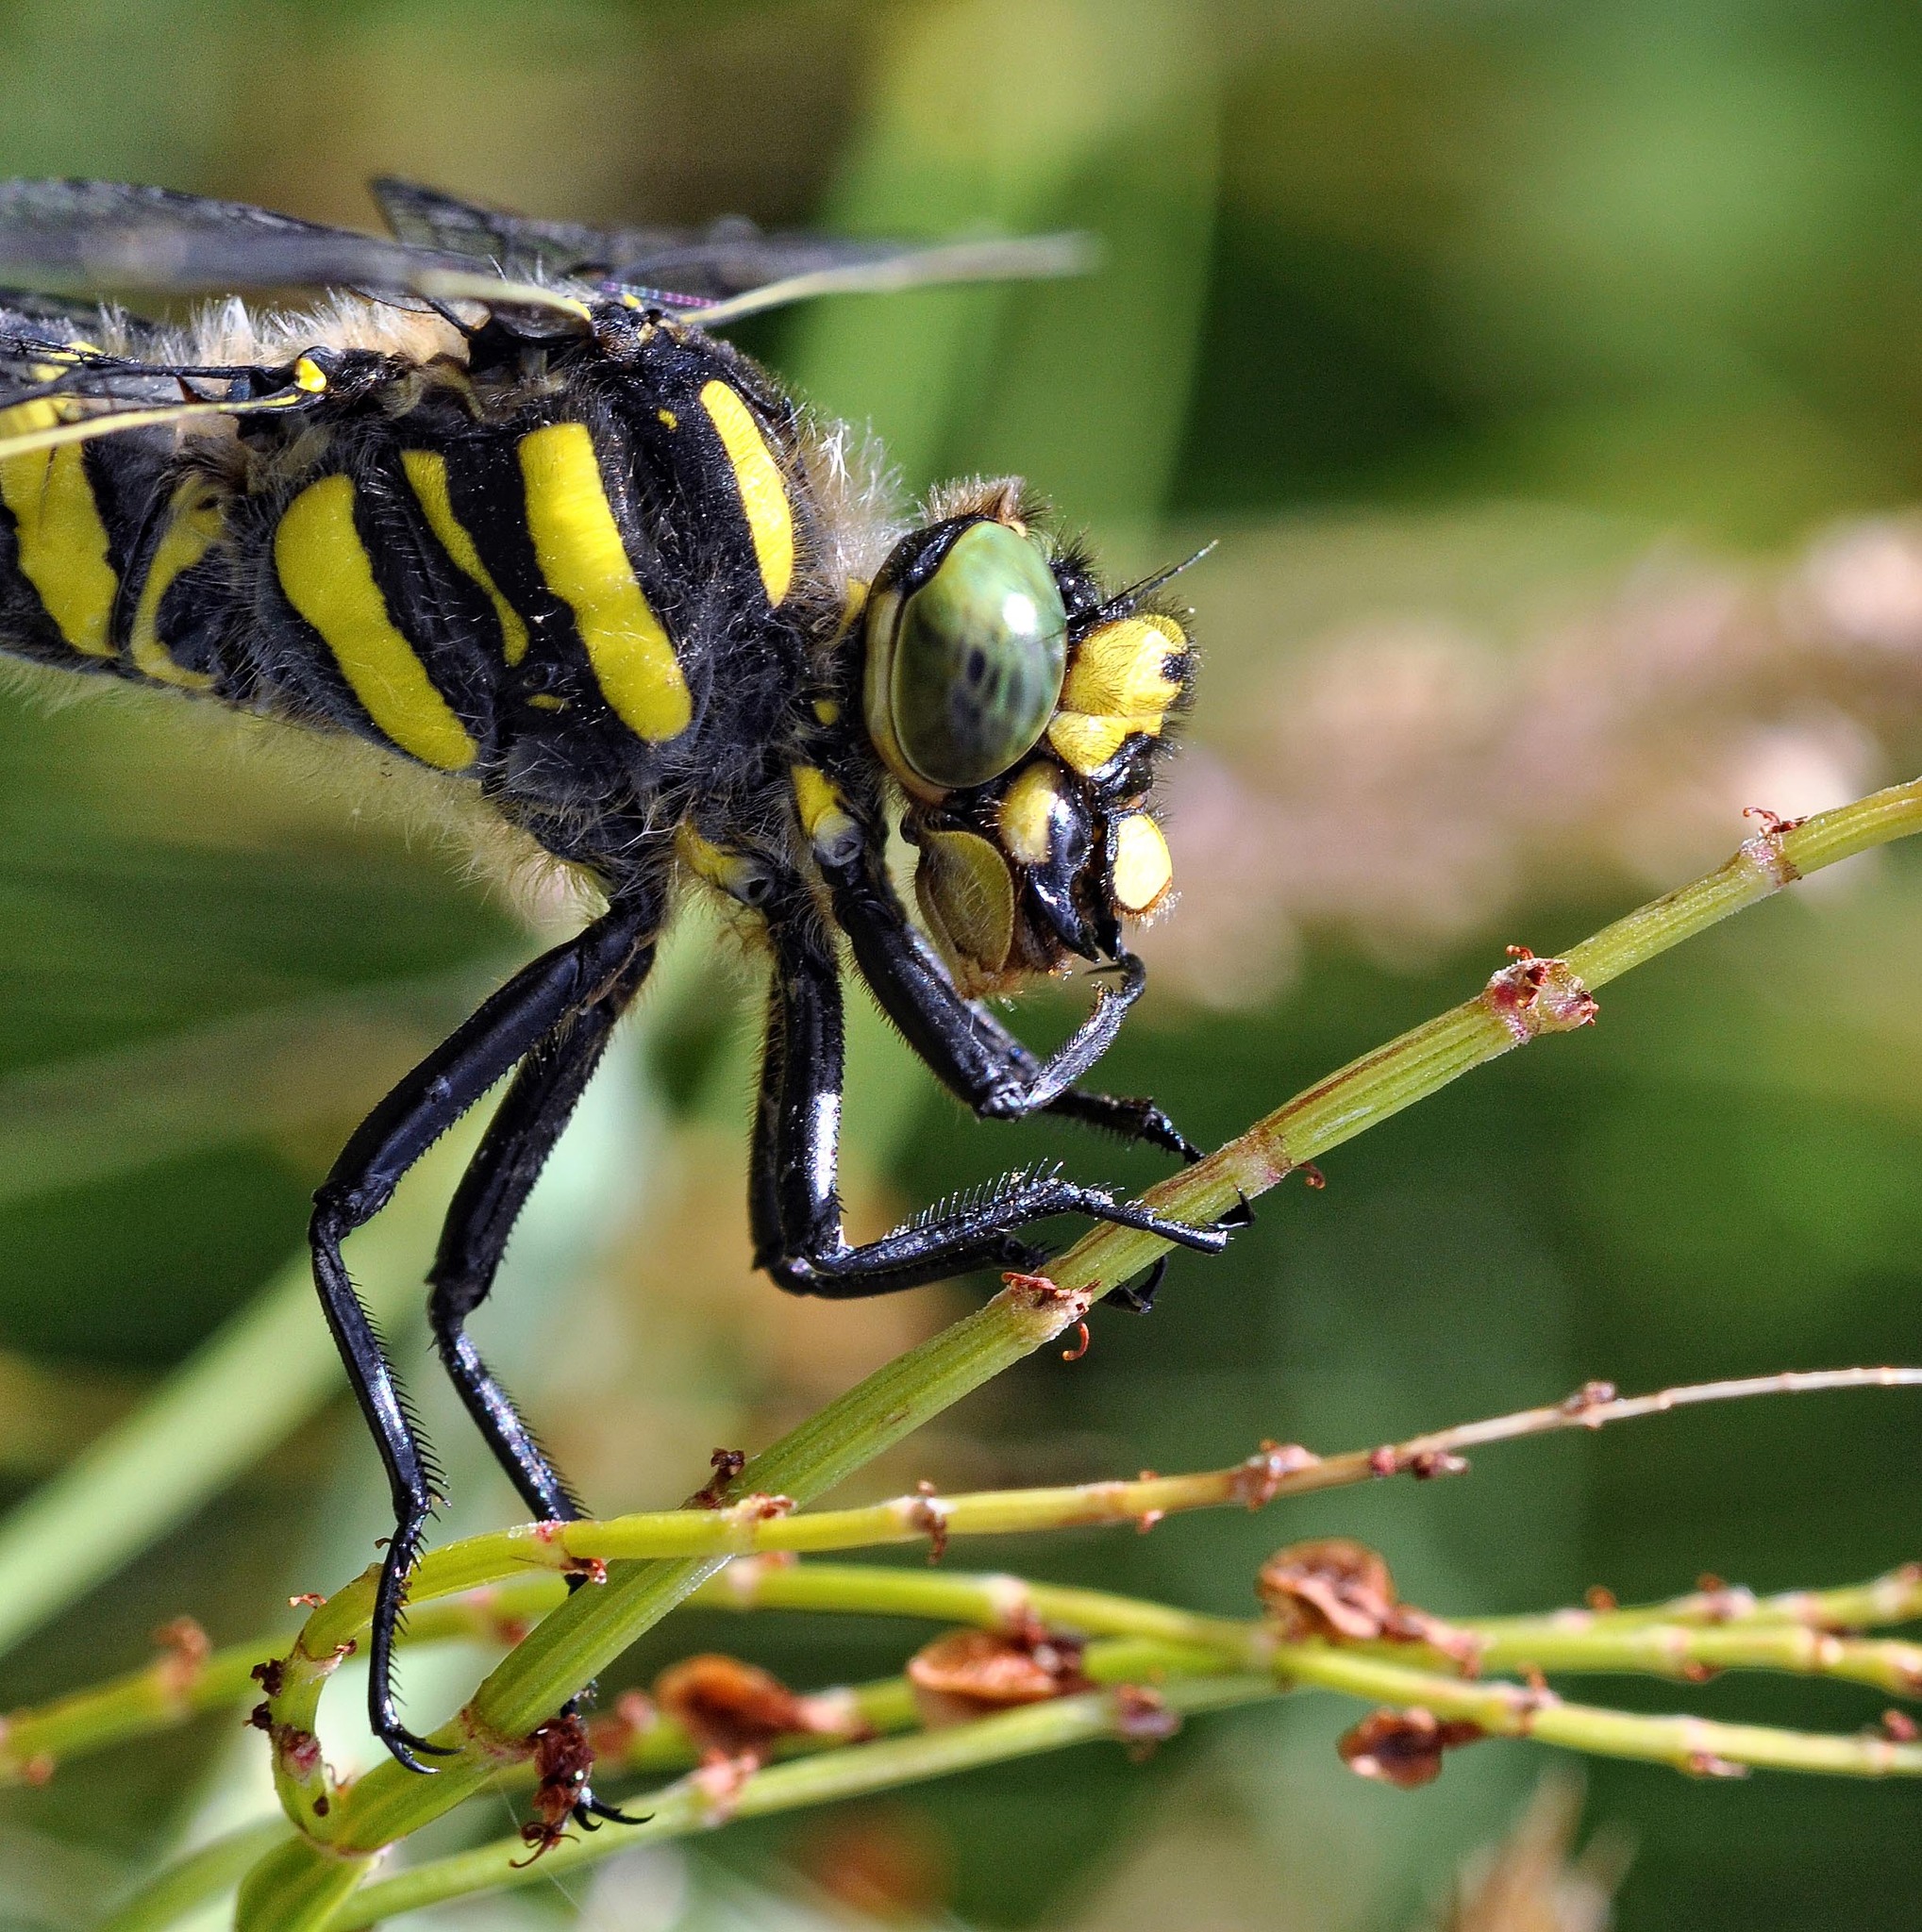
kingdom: Animalia
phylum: Arthropoda
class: Insecta
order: Odonata
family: Cordulegastridae
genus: Cordulegaster
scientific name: Cordulegaster boltonii
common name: Golden-ringed dragonfly
